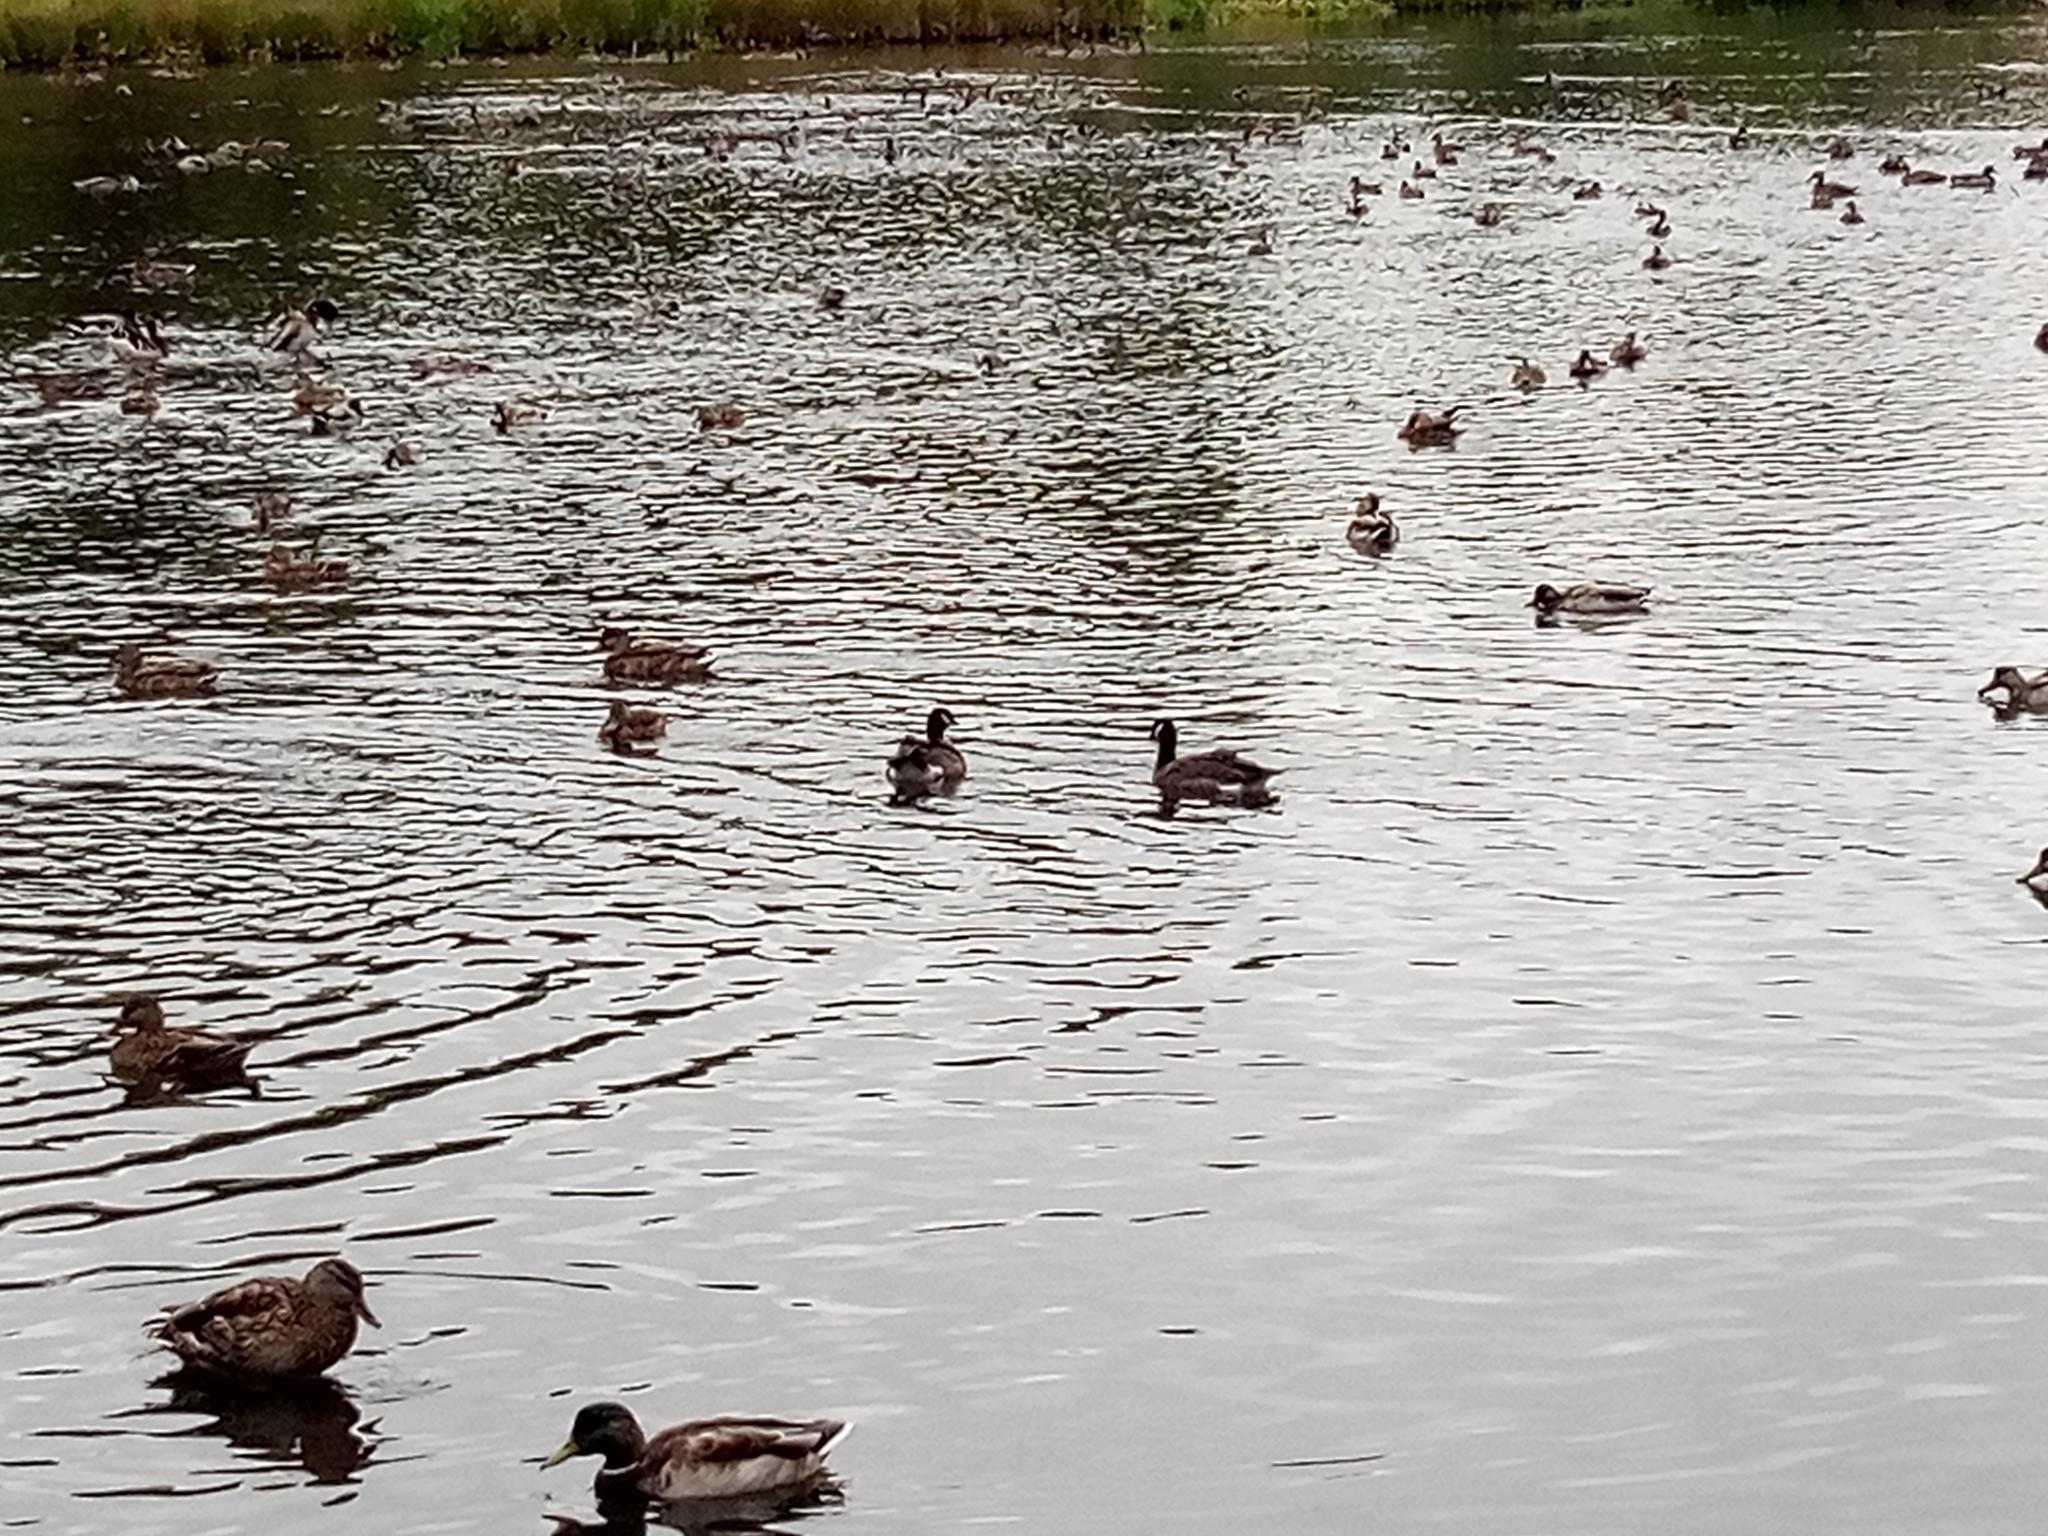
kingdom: Animalia
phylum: Chordata
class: Aves
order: Anseriformes
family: Anatidae
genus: Branta
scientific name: Branta hutchinsii
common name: Cackling goose
